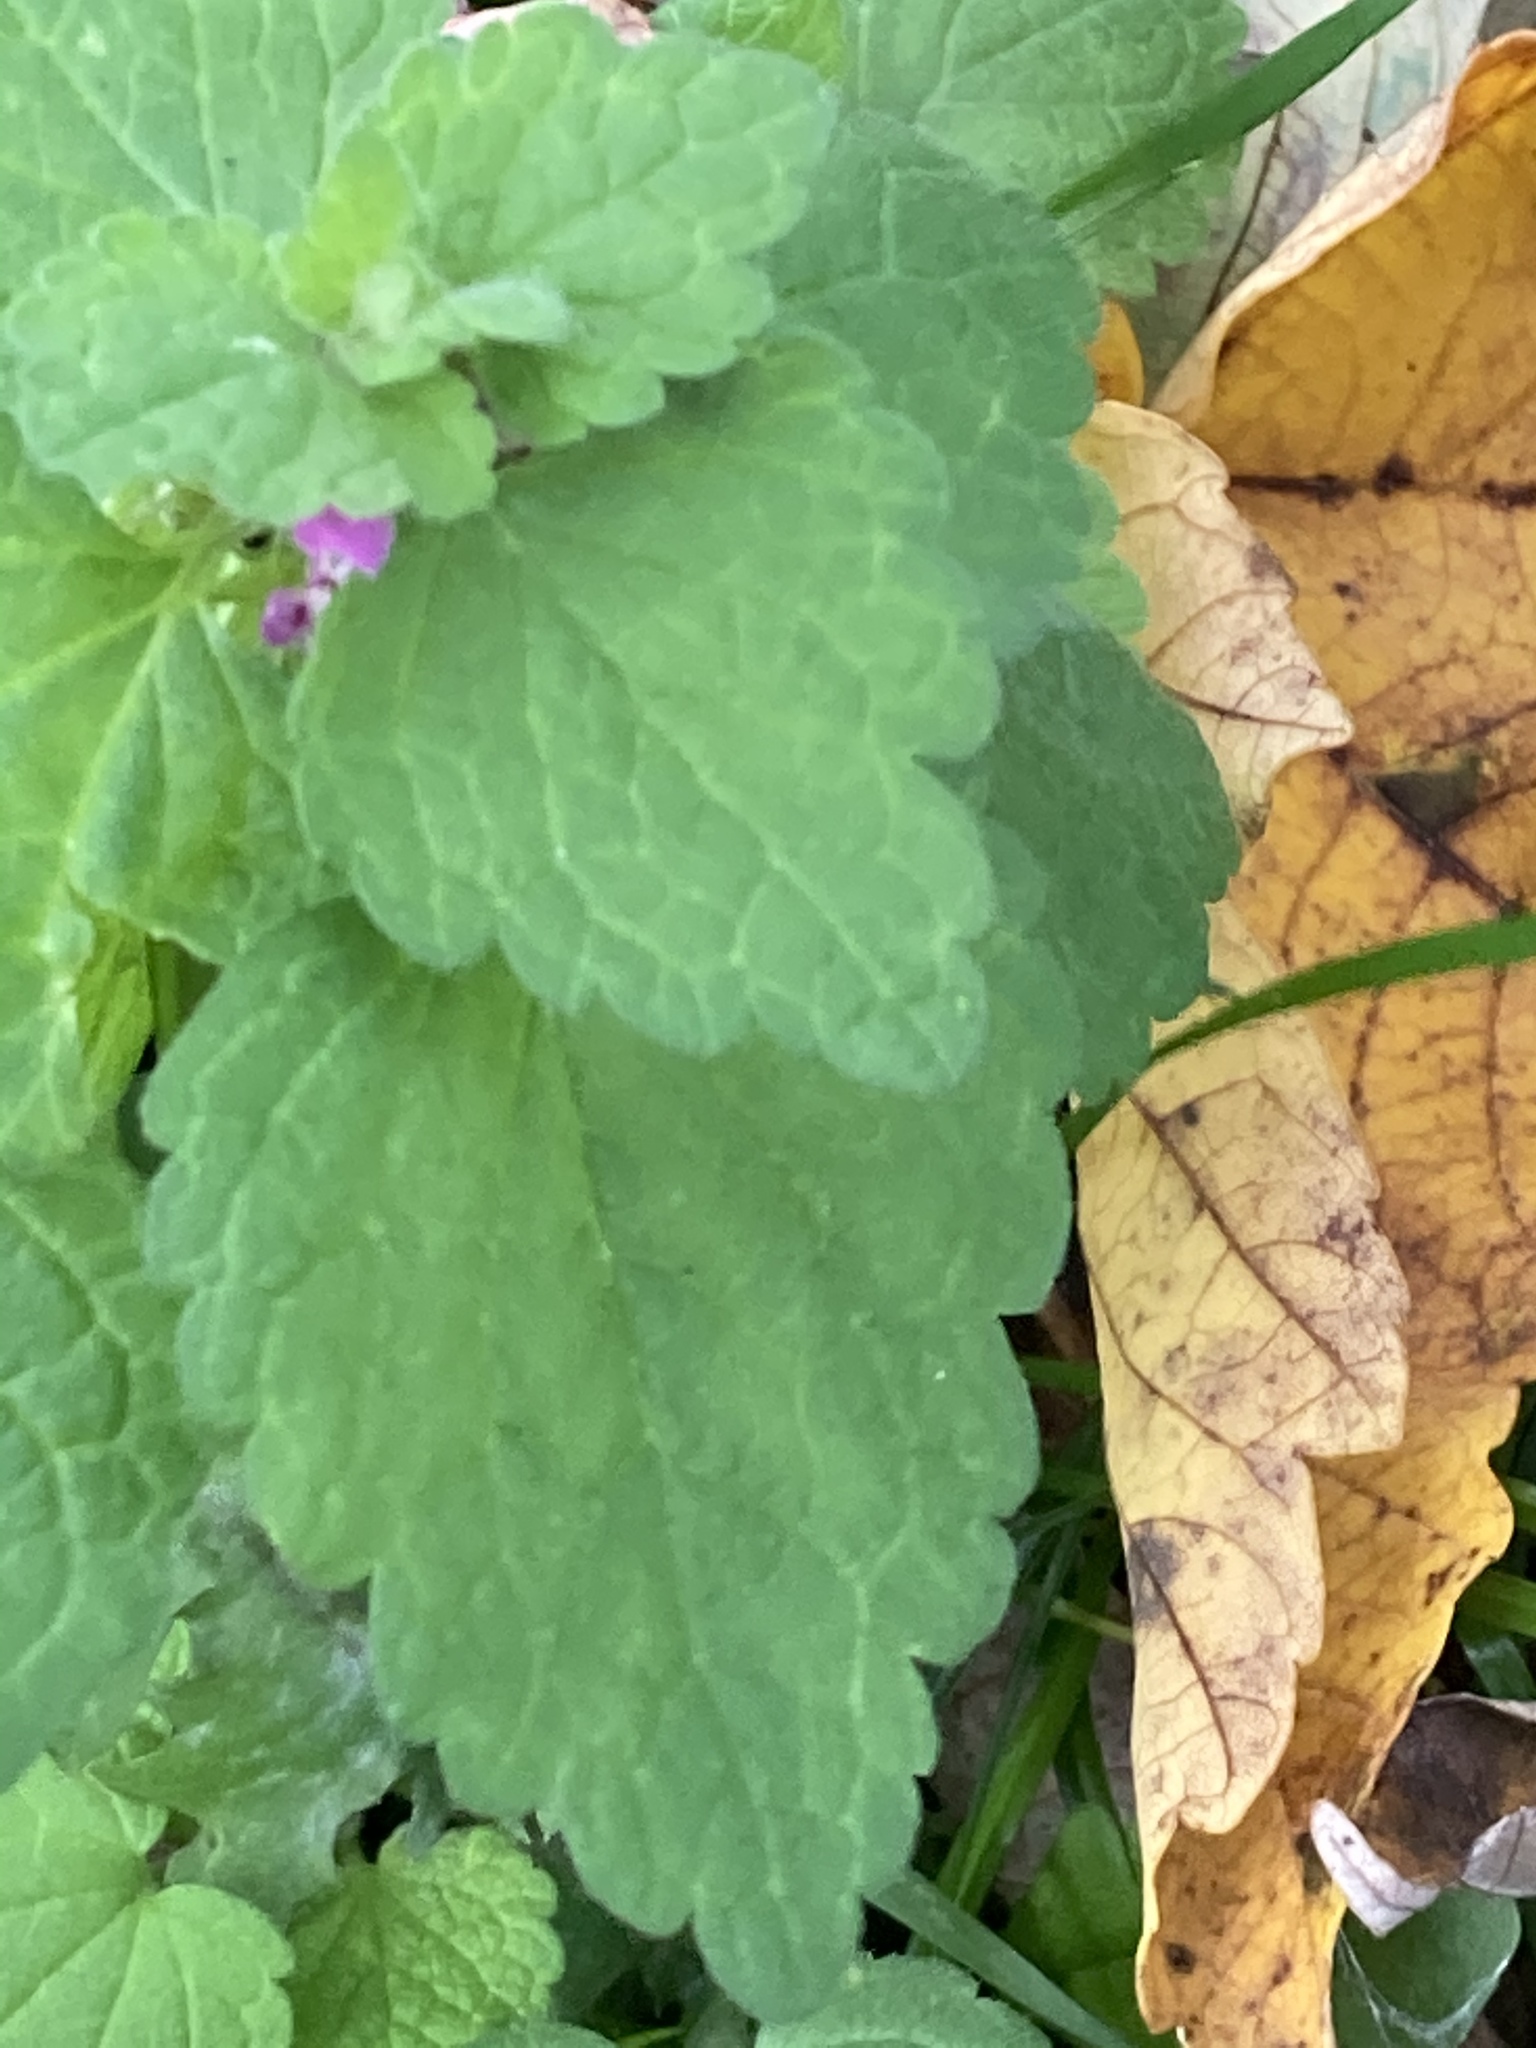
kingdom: Plantae
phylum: Tracheophyta
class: Magnoliopsida
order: Lamiales
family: Lamiaceae
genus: Lamium
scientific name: Lamium purpureum
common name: Red dead-nettle
